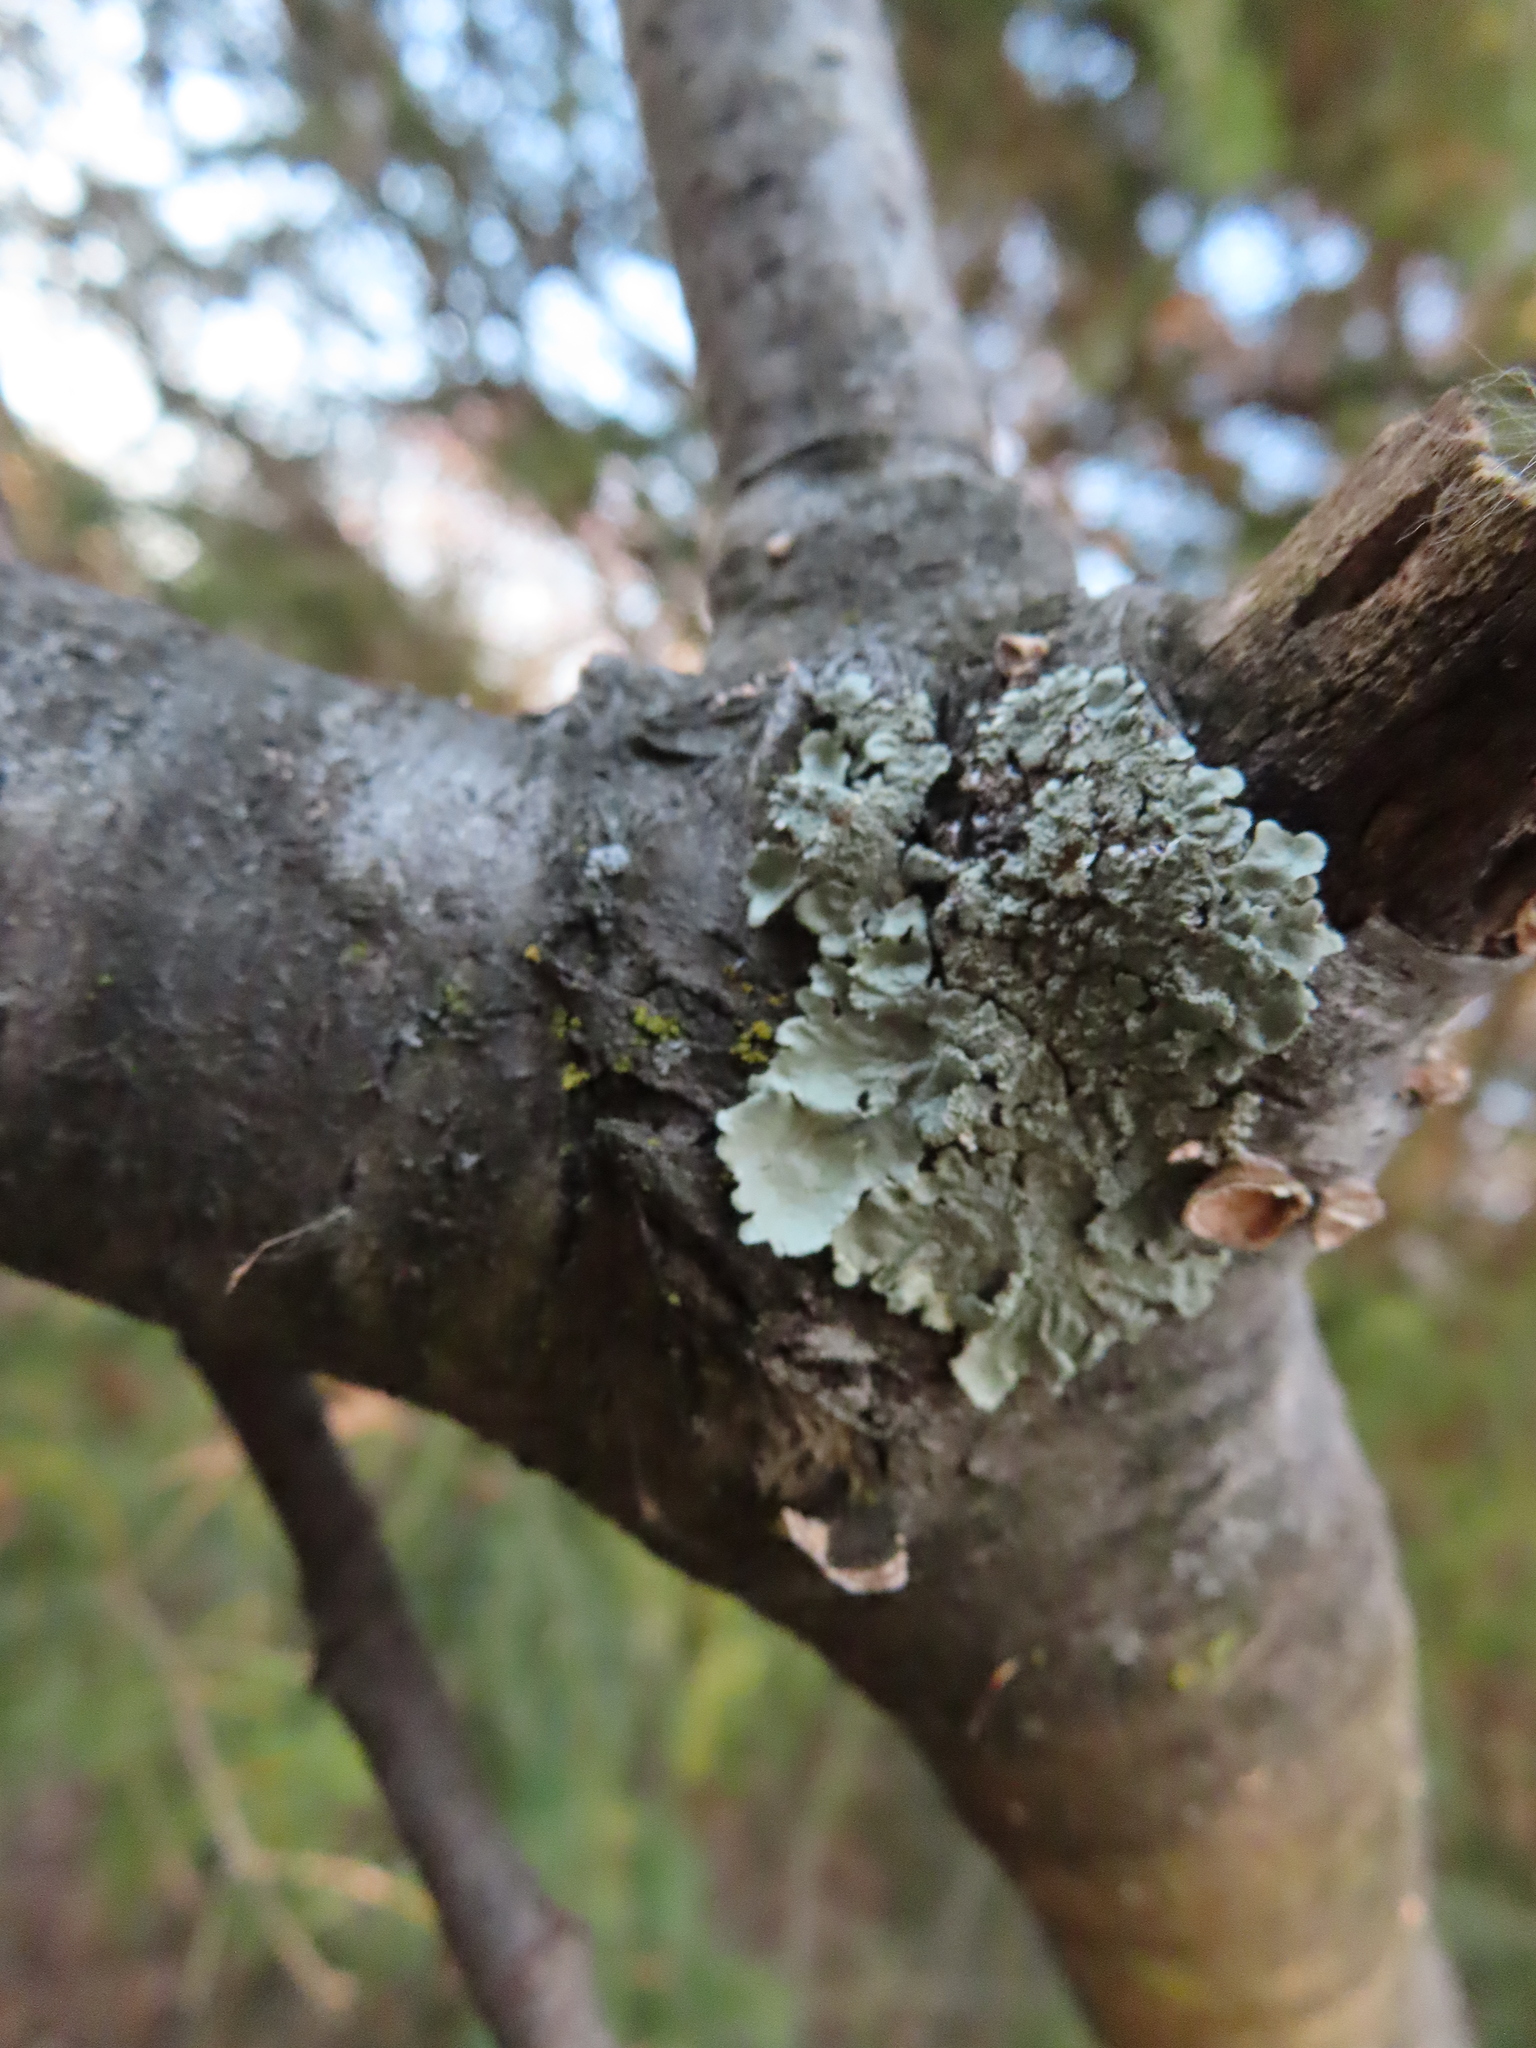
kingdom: Fungi
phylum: Ascomycota
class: Lecanoromycetes
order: Lecanorales
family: Parmeliaceae
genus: Flavoparmelia
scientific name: Flavoparmelia caperata
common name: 40-mile per hour lichen
